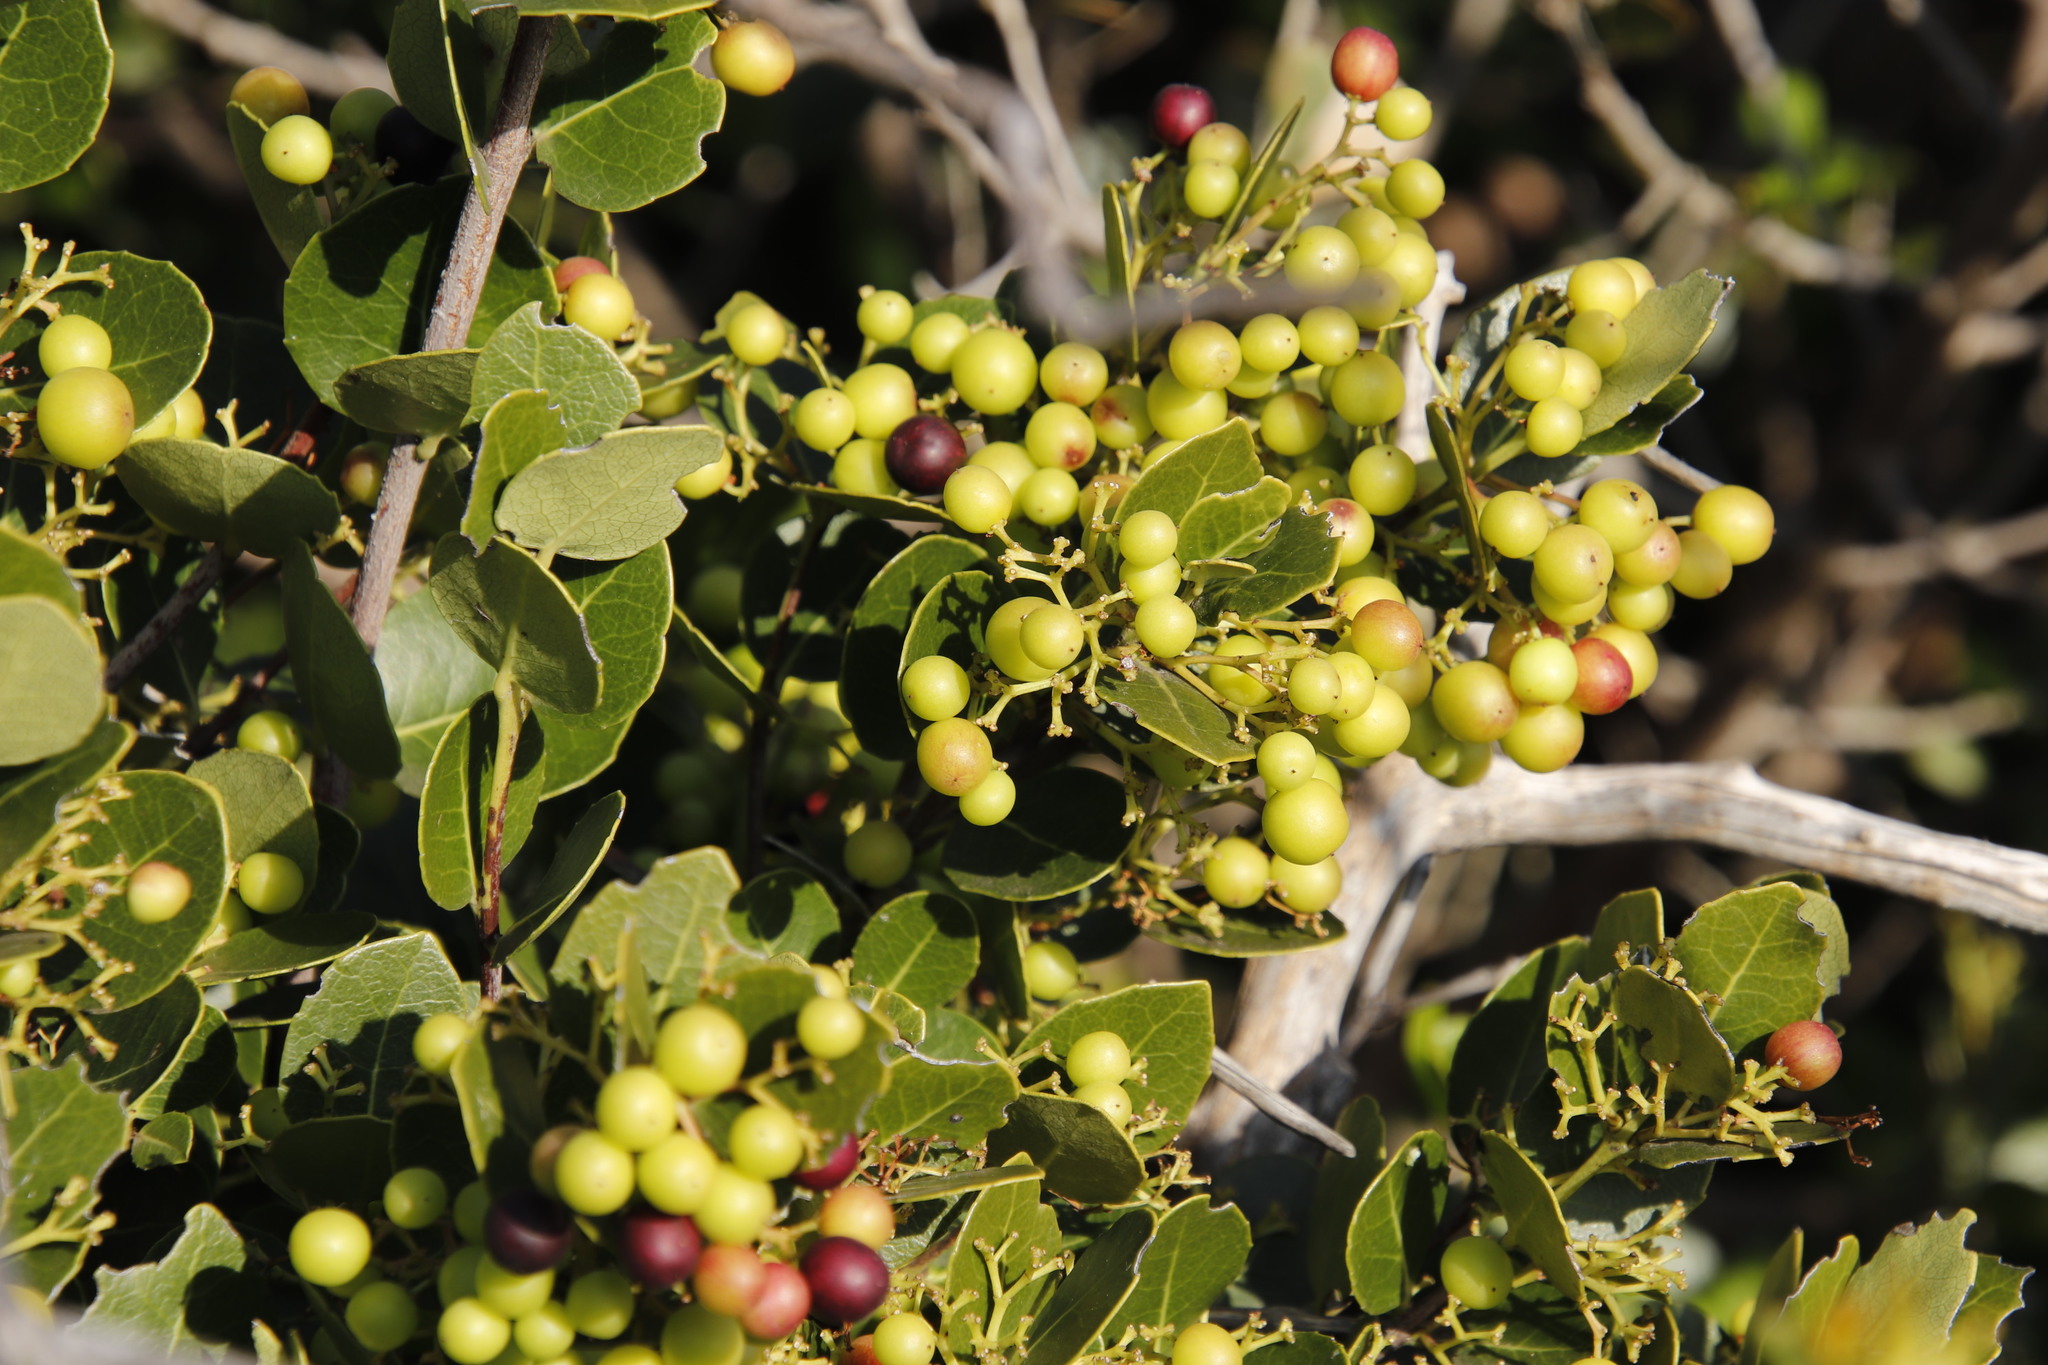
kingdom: Plantae
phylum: Tracheophyta
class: Magnoliopsida
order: Celastrales
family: Celastraceae
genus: Cassine
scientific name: Cassine peragua
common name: Cape saffron
